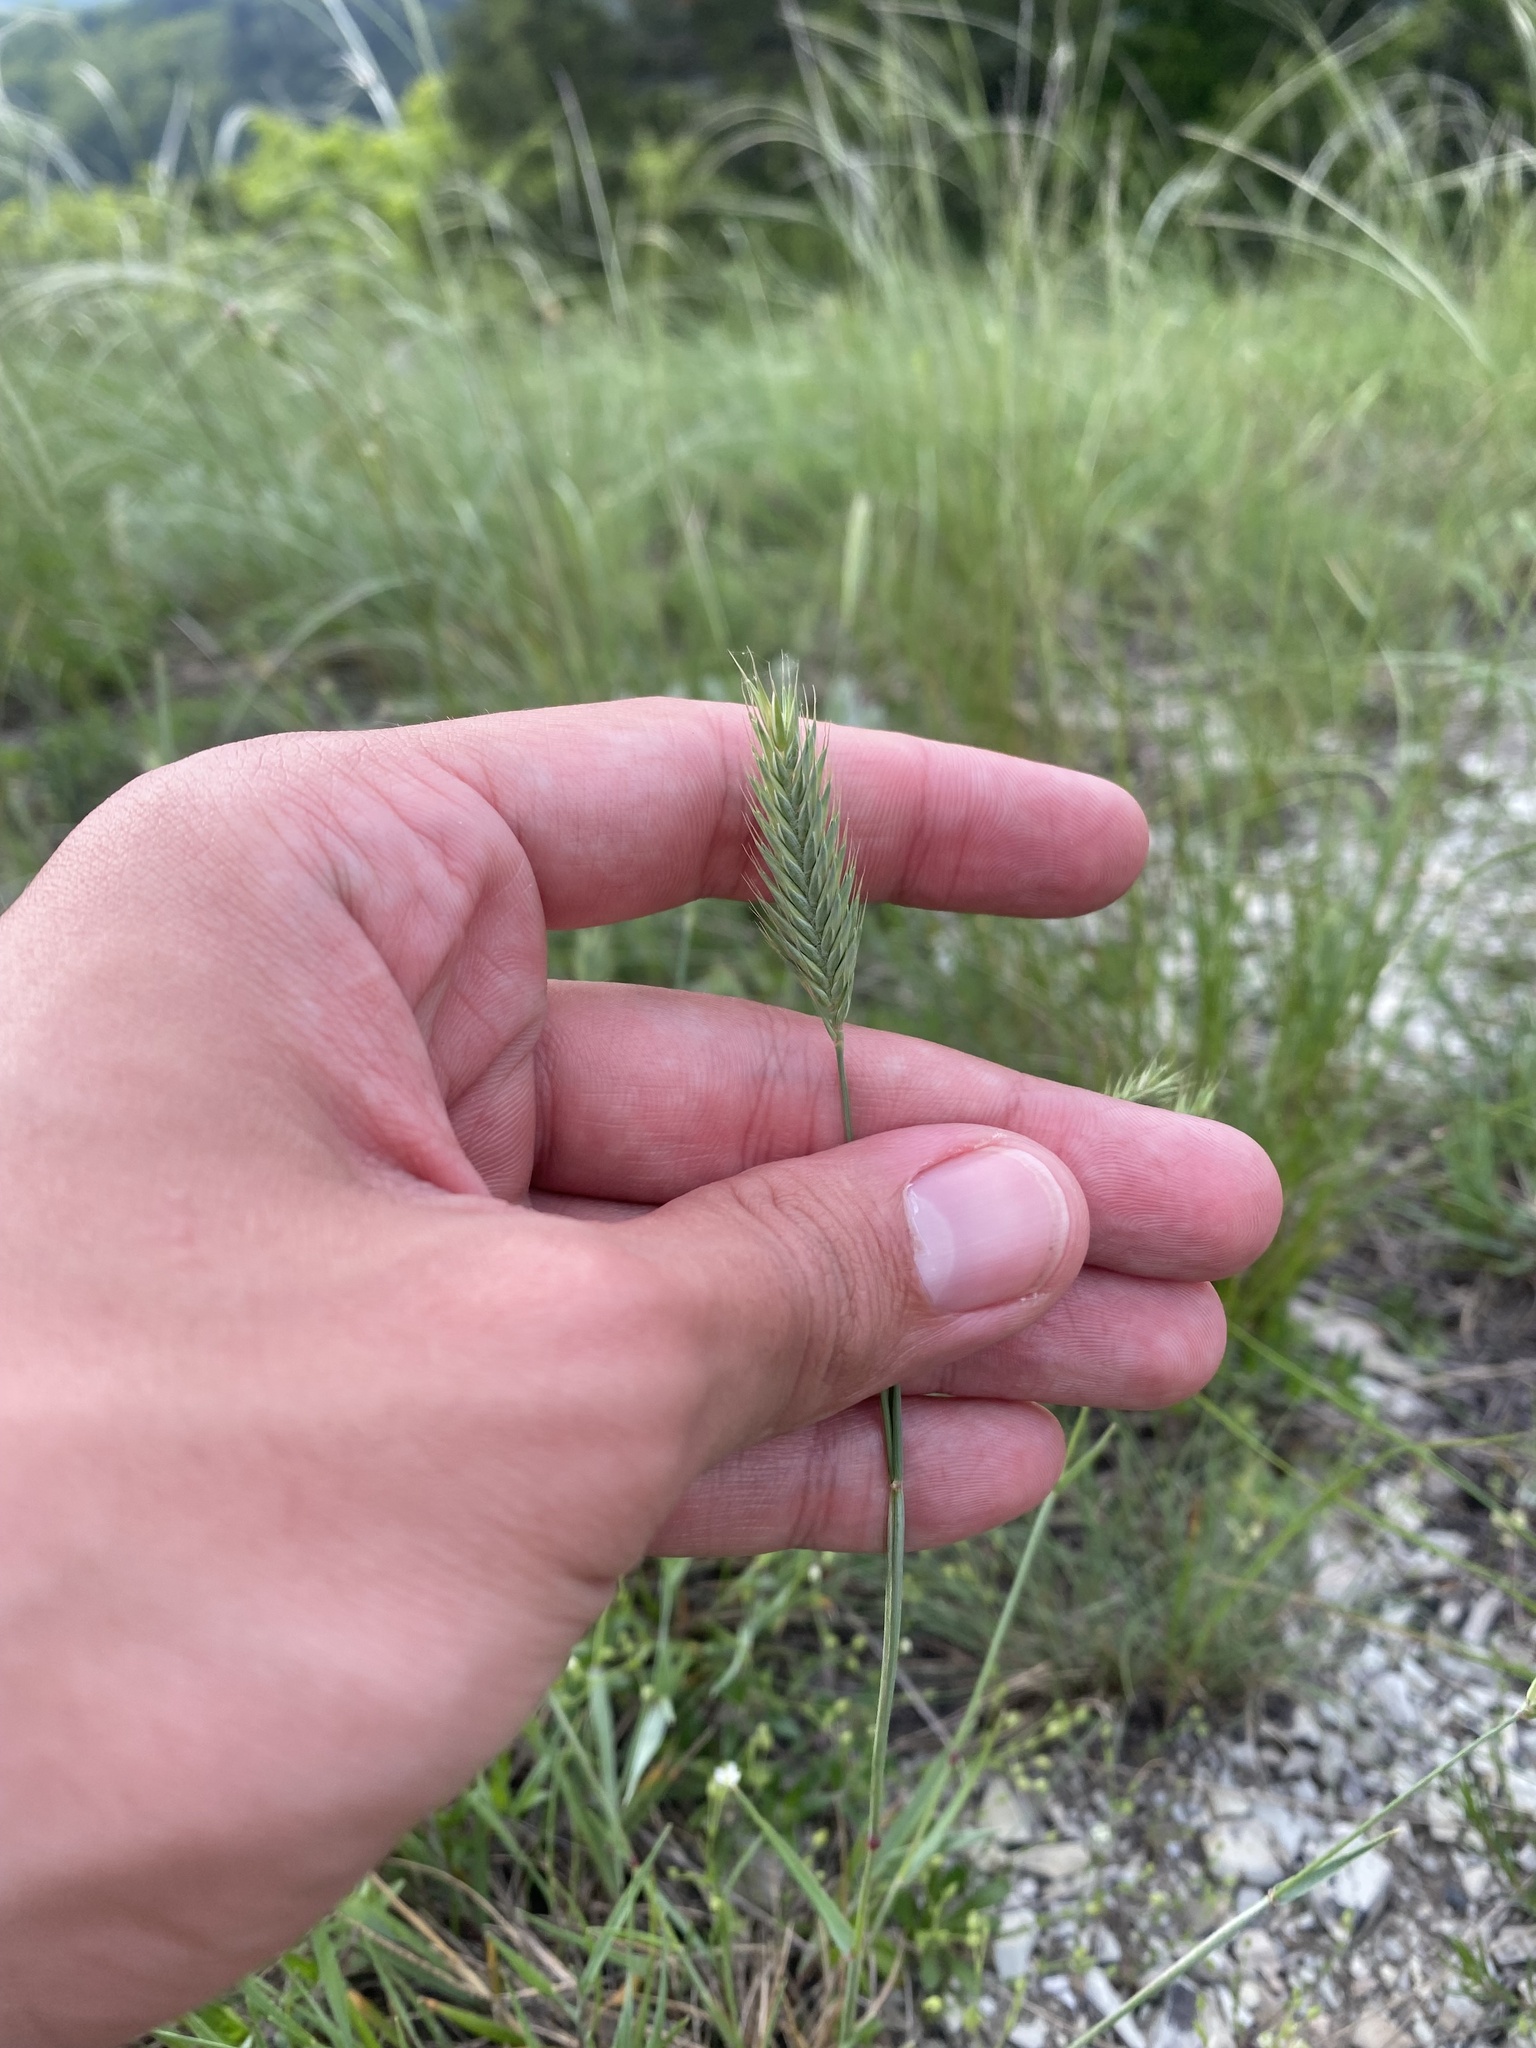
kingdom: Plantae
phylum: Tracheophyta
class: Liliopsida
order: Poales
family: Poaceae
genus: Agropyron
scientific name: Agropyron cristatum
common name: Crested wheatgrass
